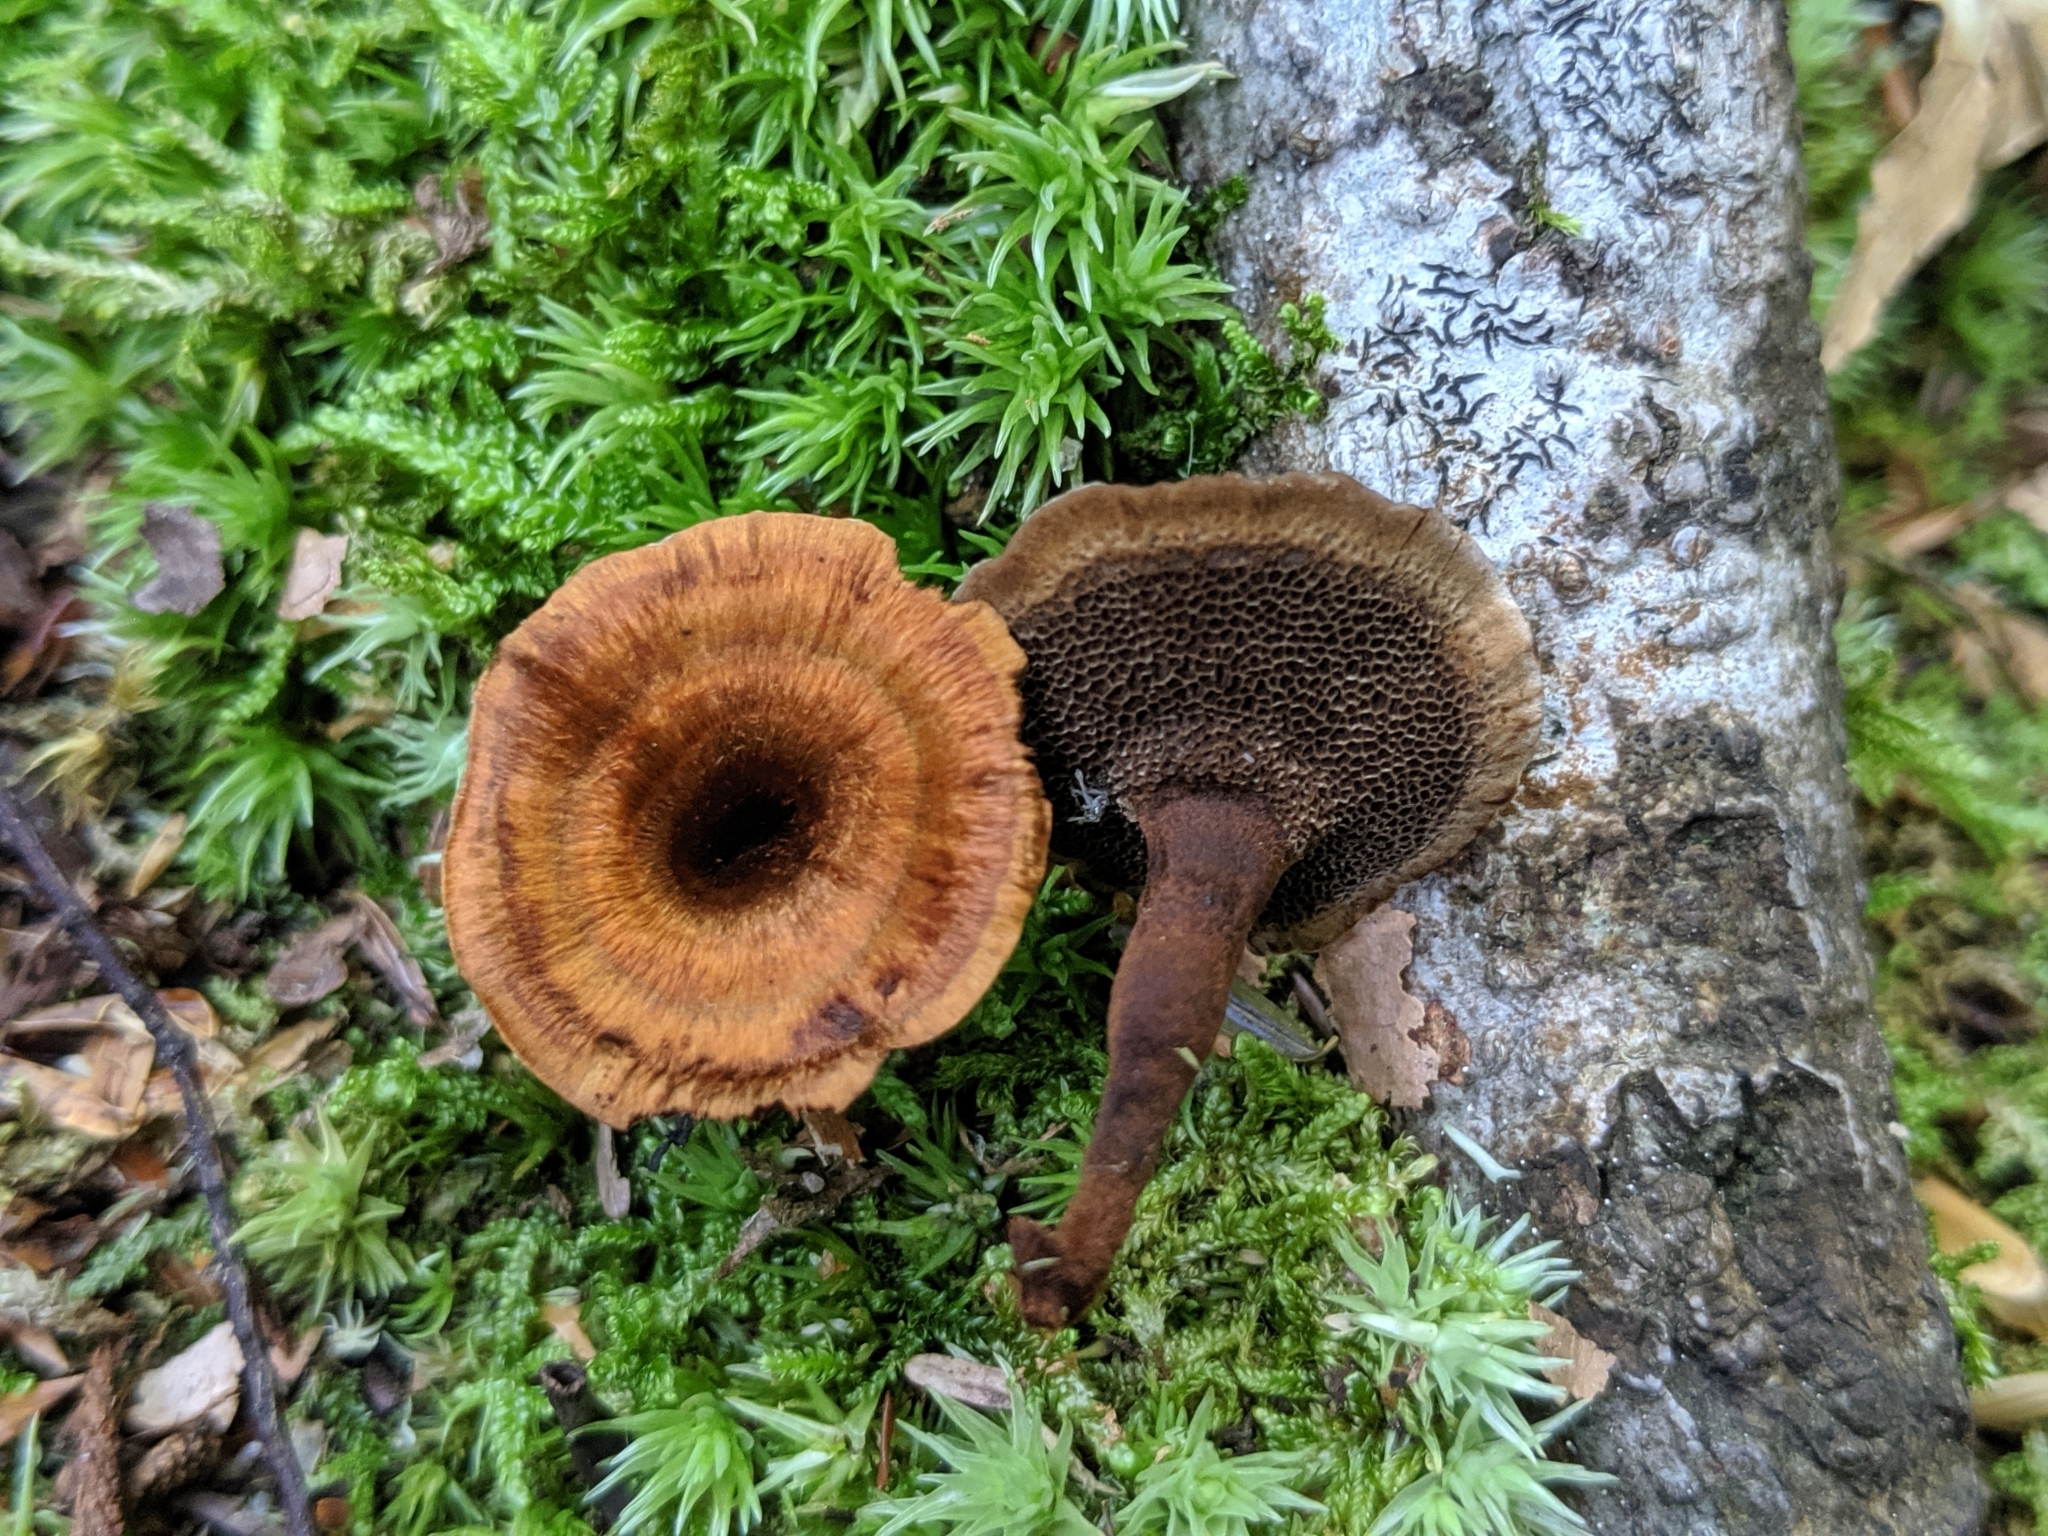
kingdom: Fungi
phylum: Basidiomycota
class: Agaricomycetes
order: Hymenochaetales
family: Hymenochaetaceae
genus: Coltricia
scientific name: Coltricia cinnamomea
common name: Shiny cinnamon polypore
